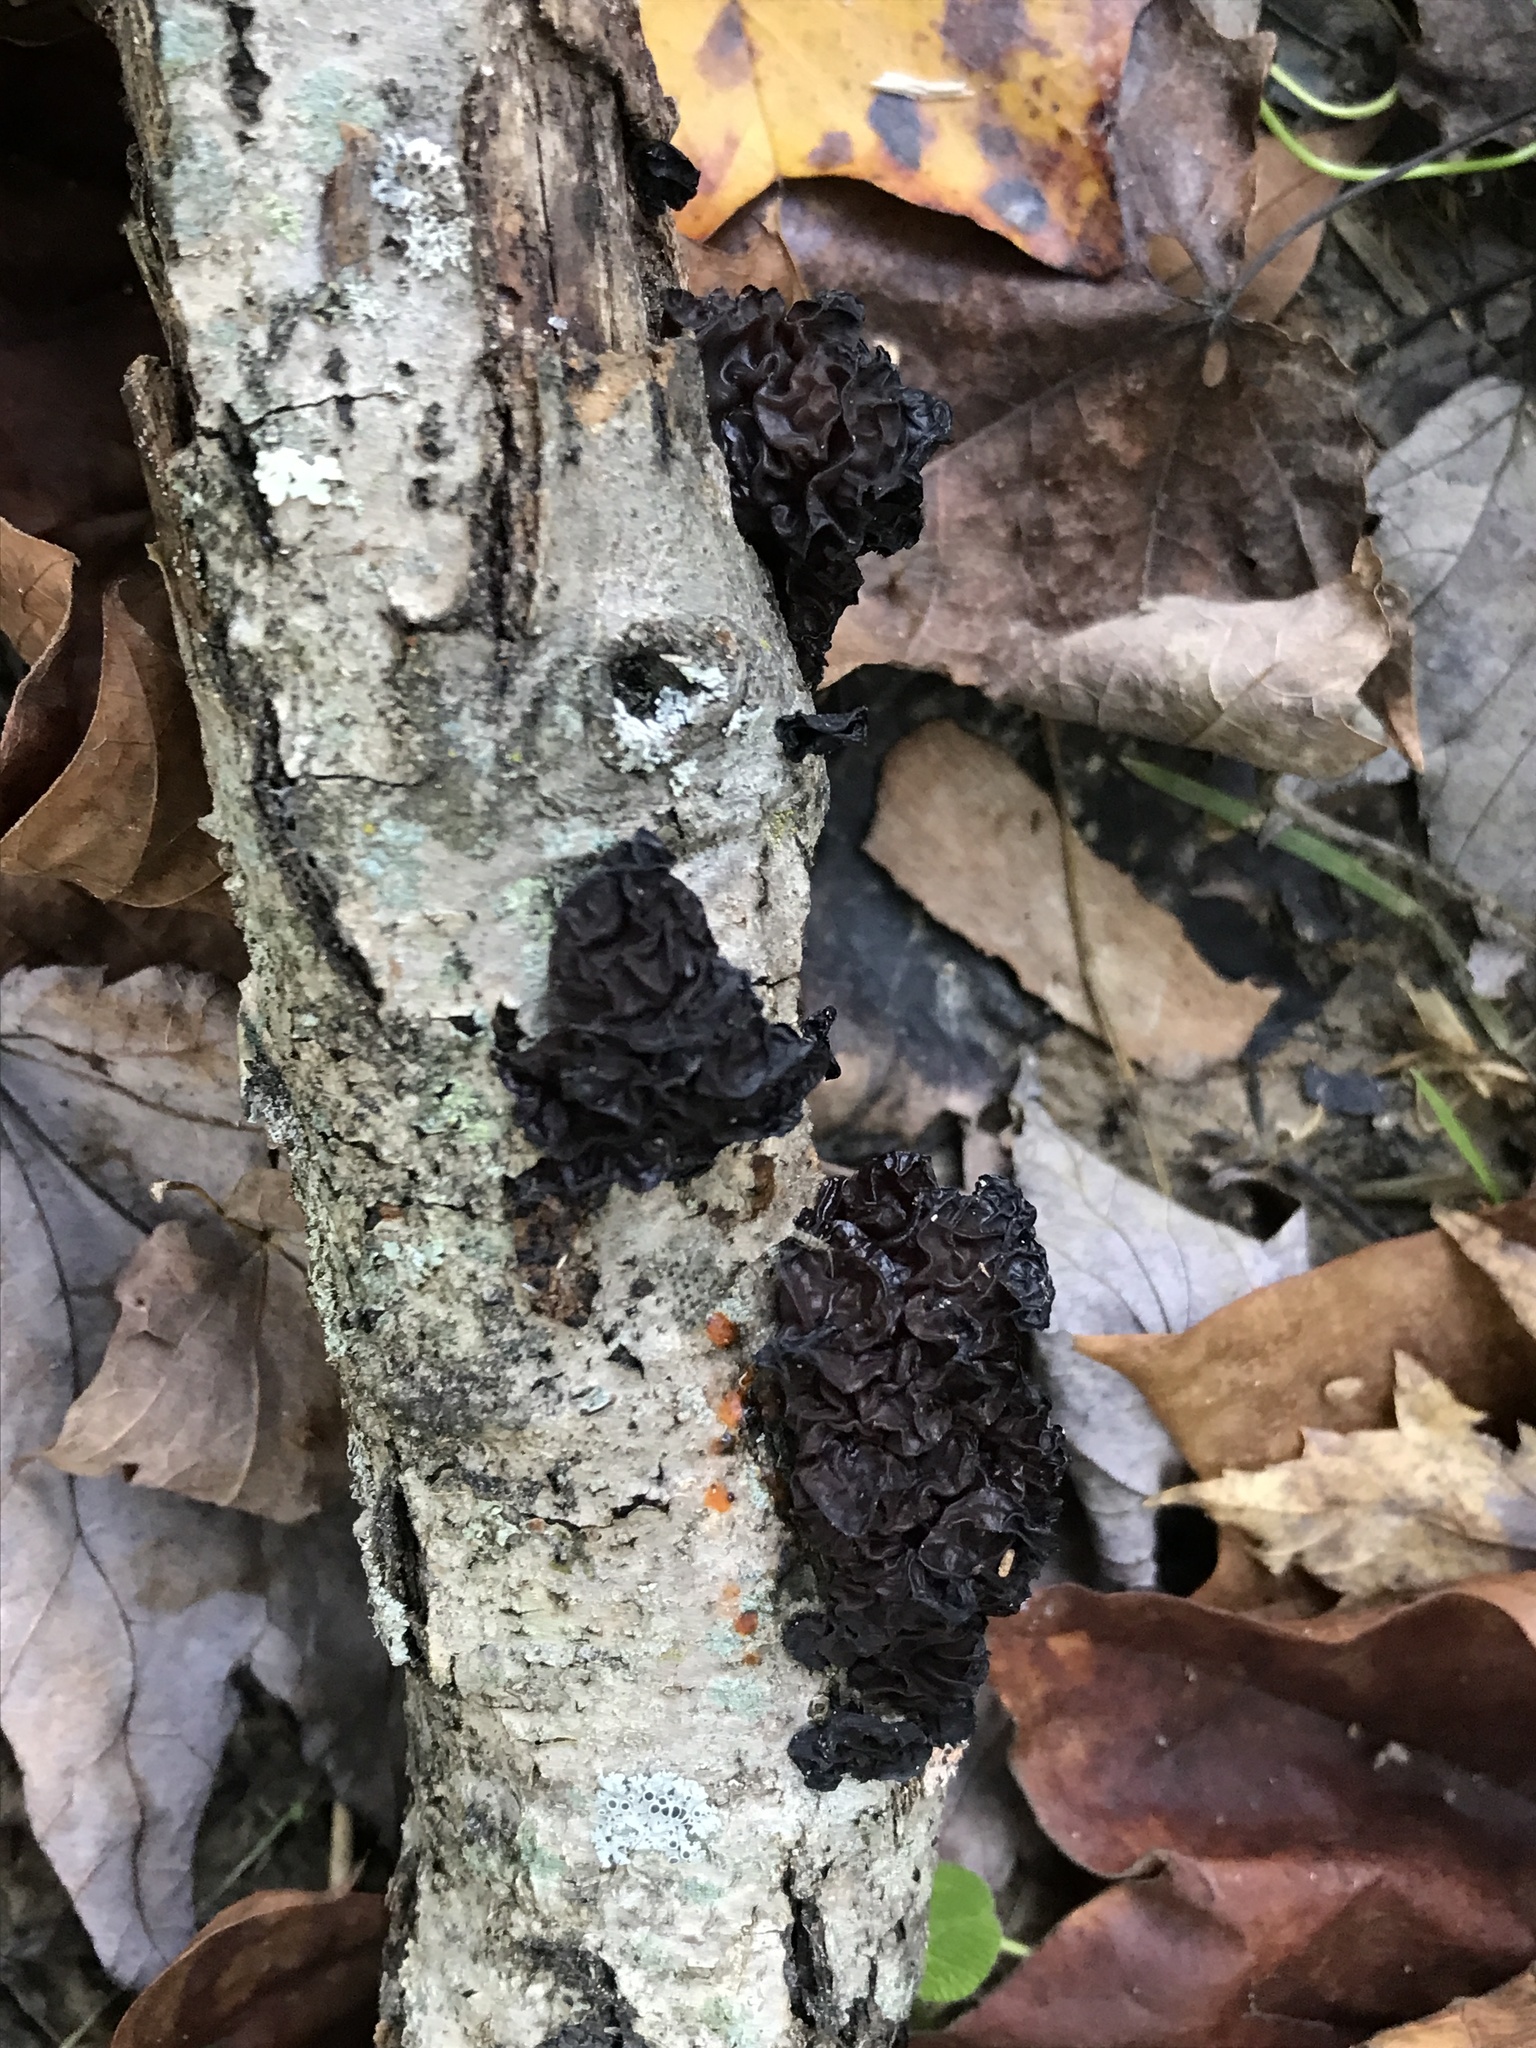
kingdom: Fungi
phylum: Basidiomycota
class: Agaricomycetes
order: Auriculariales
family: Auriculariaceae
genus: Exidia
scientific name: Exidia nigricans
